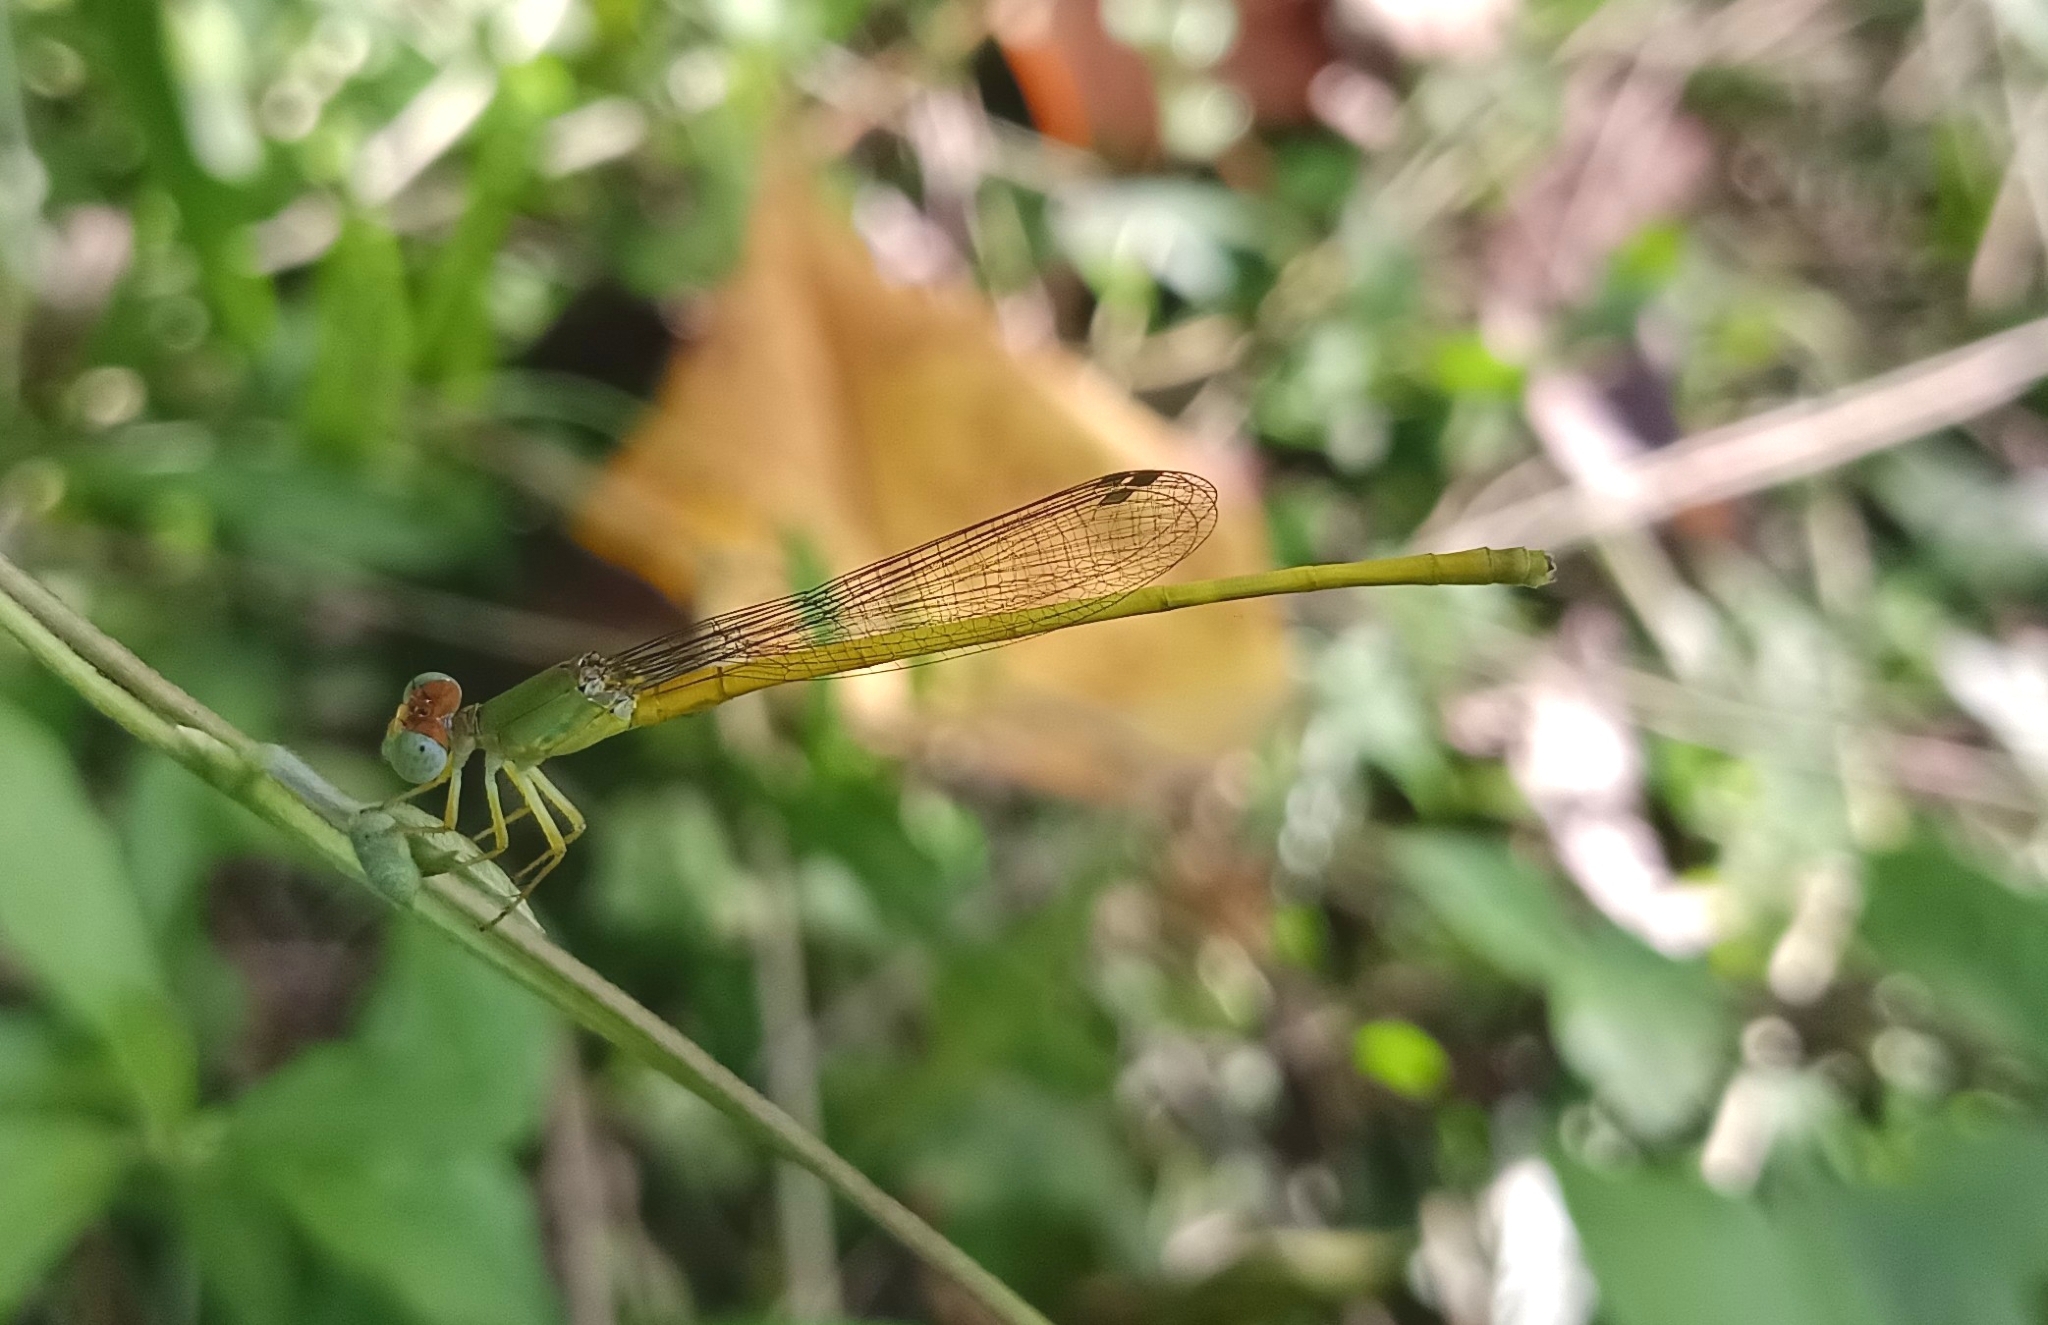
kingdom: Animalia
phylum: Arthropoda
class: Insecta
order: Odonata
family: Coenagrionidae
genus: Ceriagrion
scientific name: Ceriagrion coromandelianum
